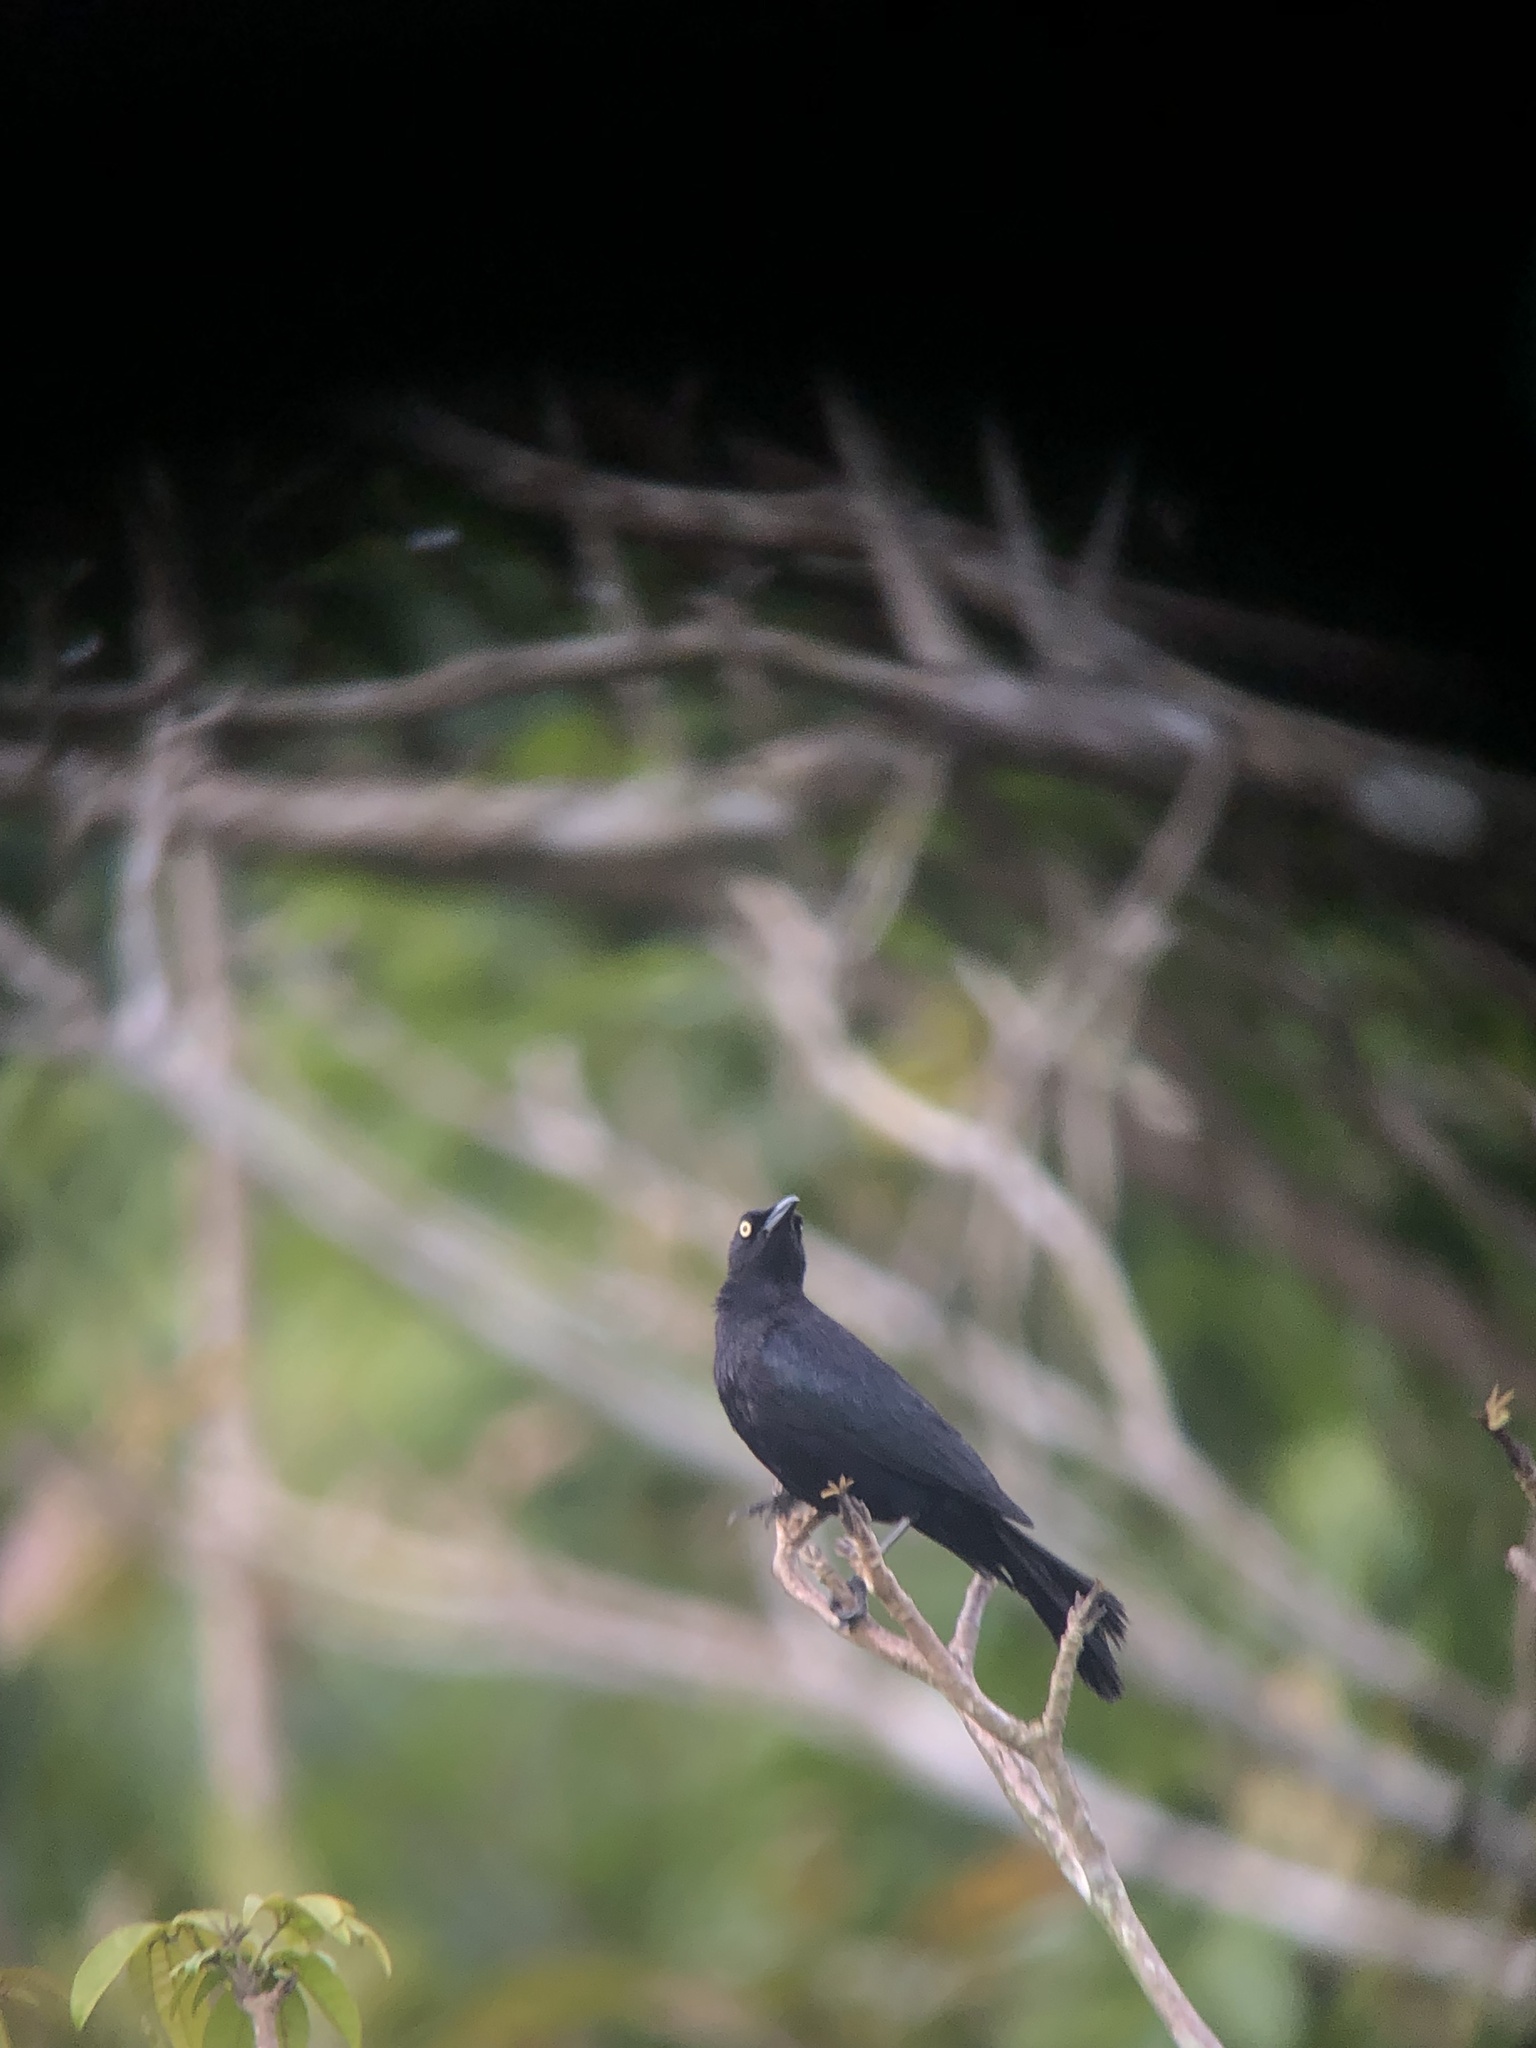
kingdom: Animalia
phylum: Chordata
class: Aves
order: Passeriformes
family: Icteridae
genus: Quiscalus
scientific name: Quiscalus lugubris
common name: Carib grackle
